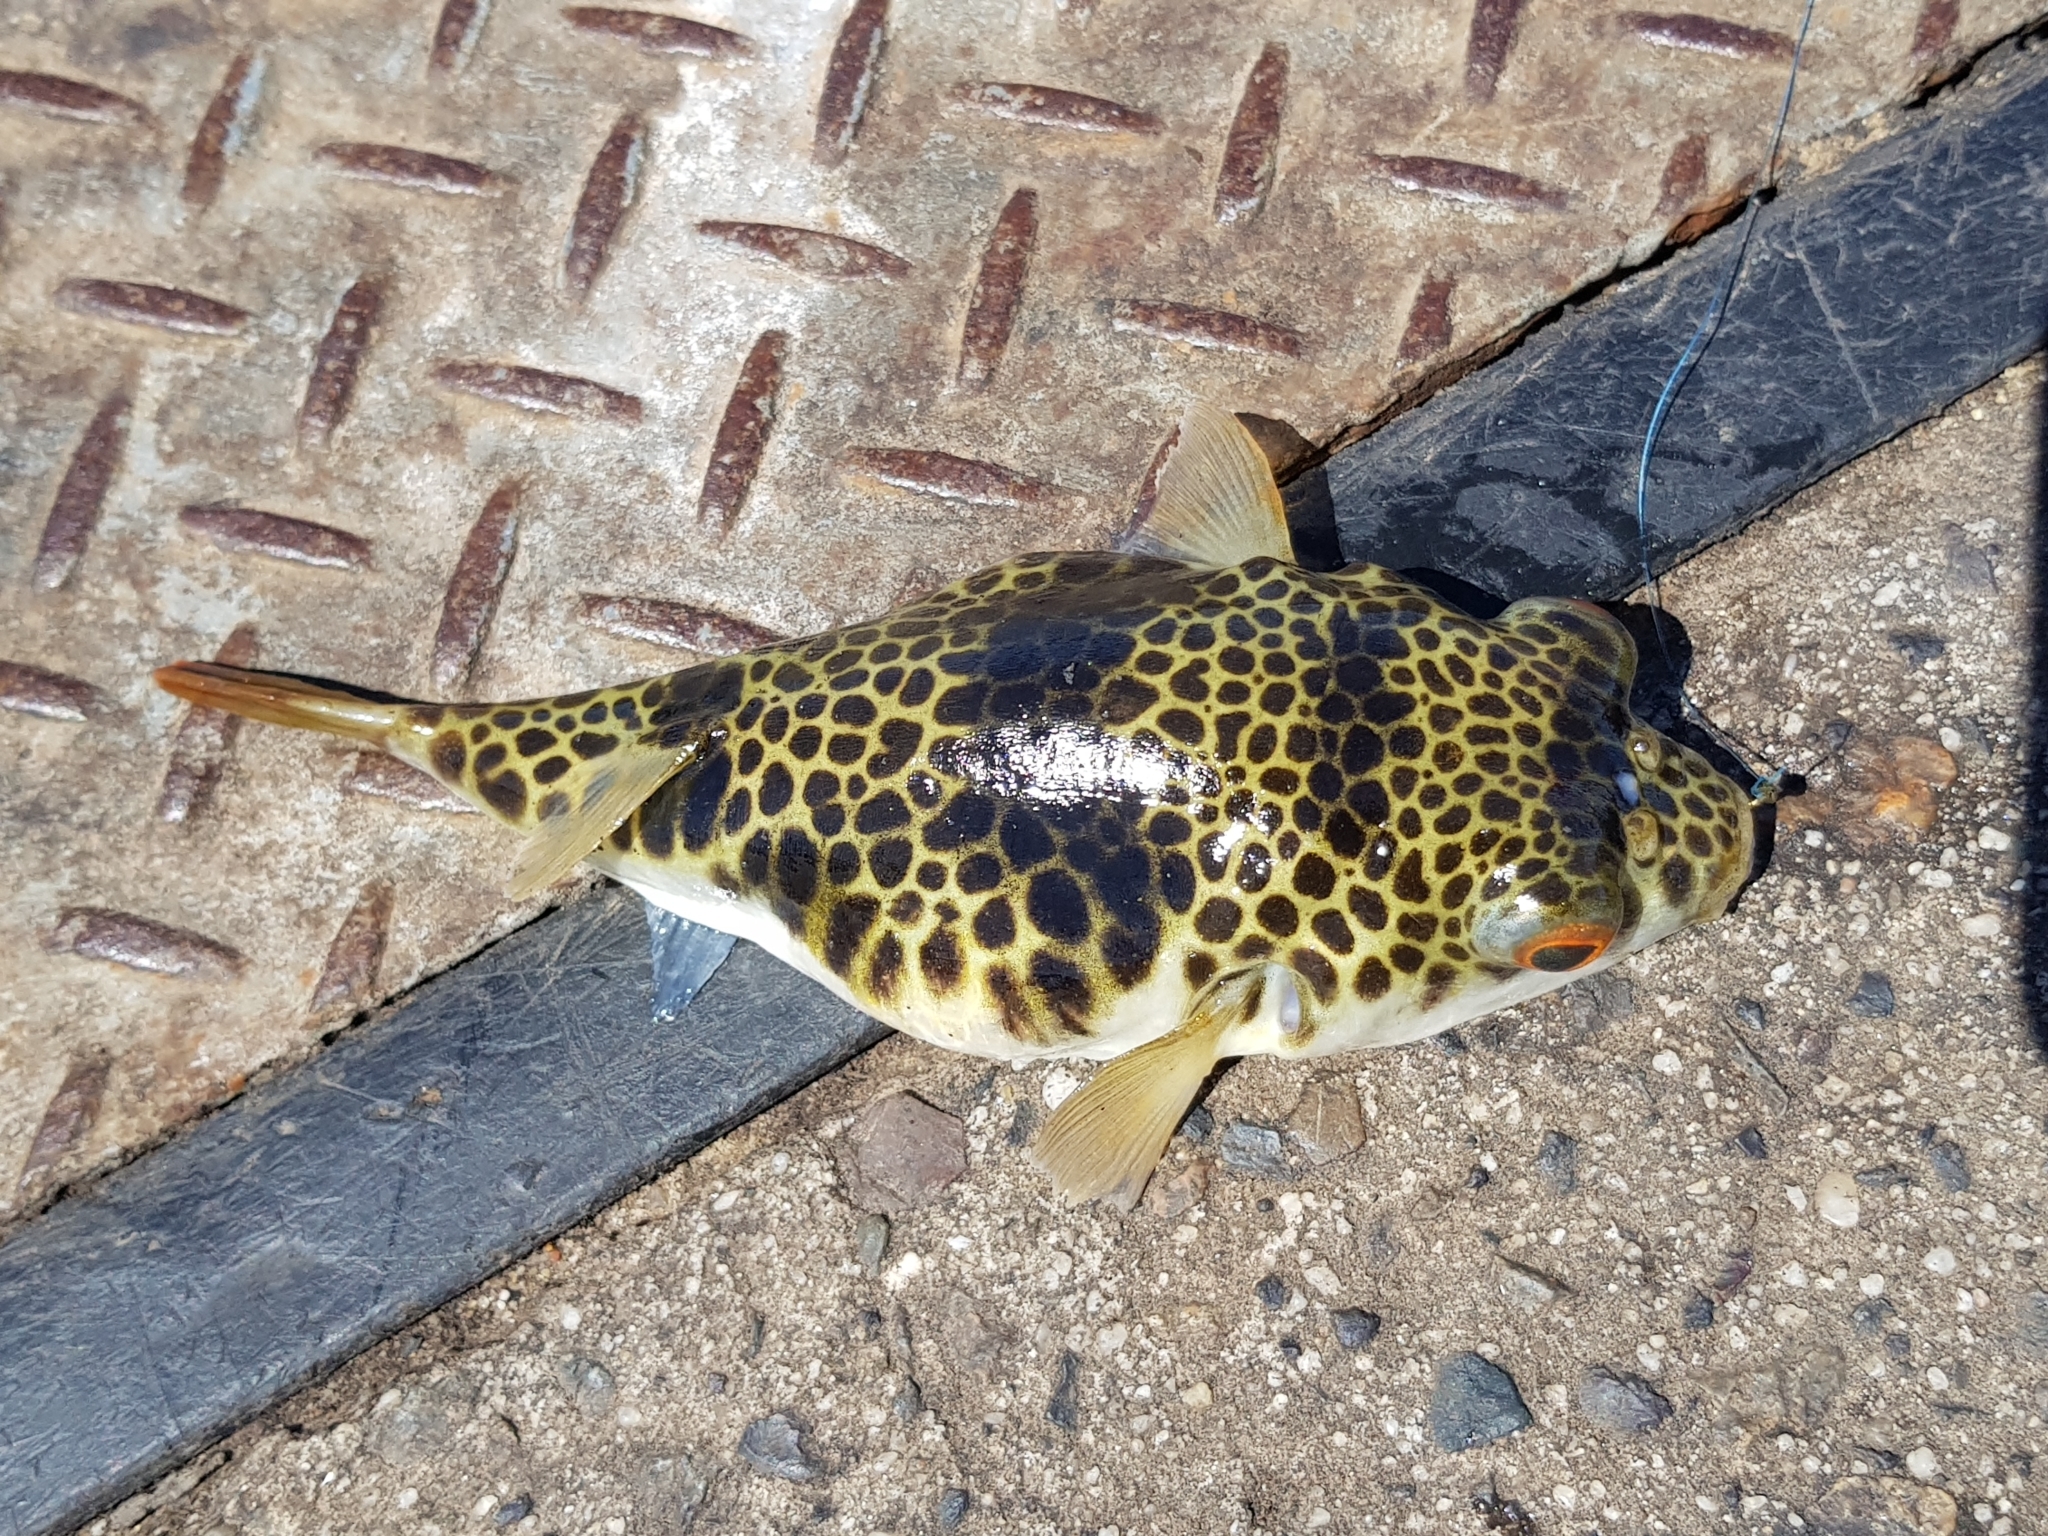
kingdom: Animalia
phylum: Chordata
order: Tetraodontiformes
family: Tetraodontidae
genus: Tetractenos
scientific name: Tetractenos glaber
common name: Smooth toadfish
